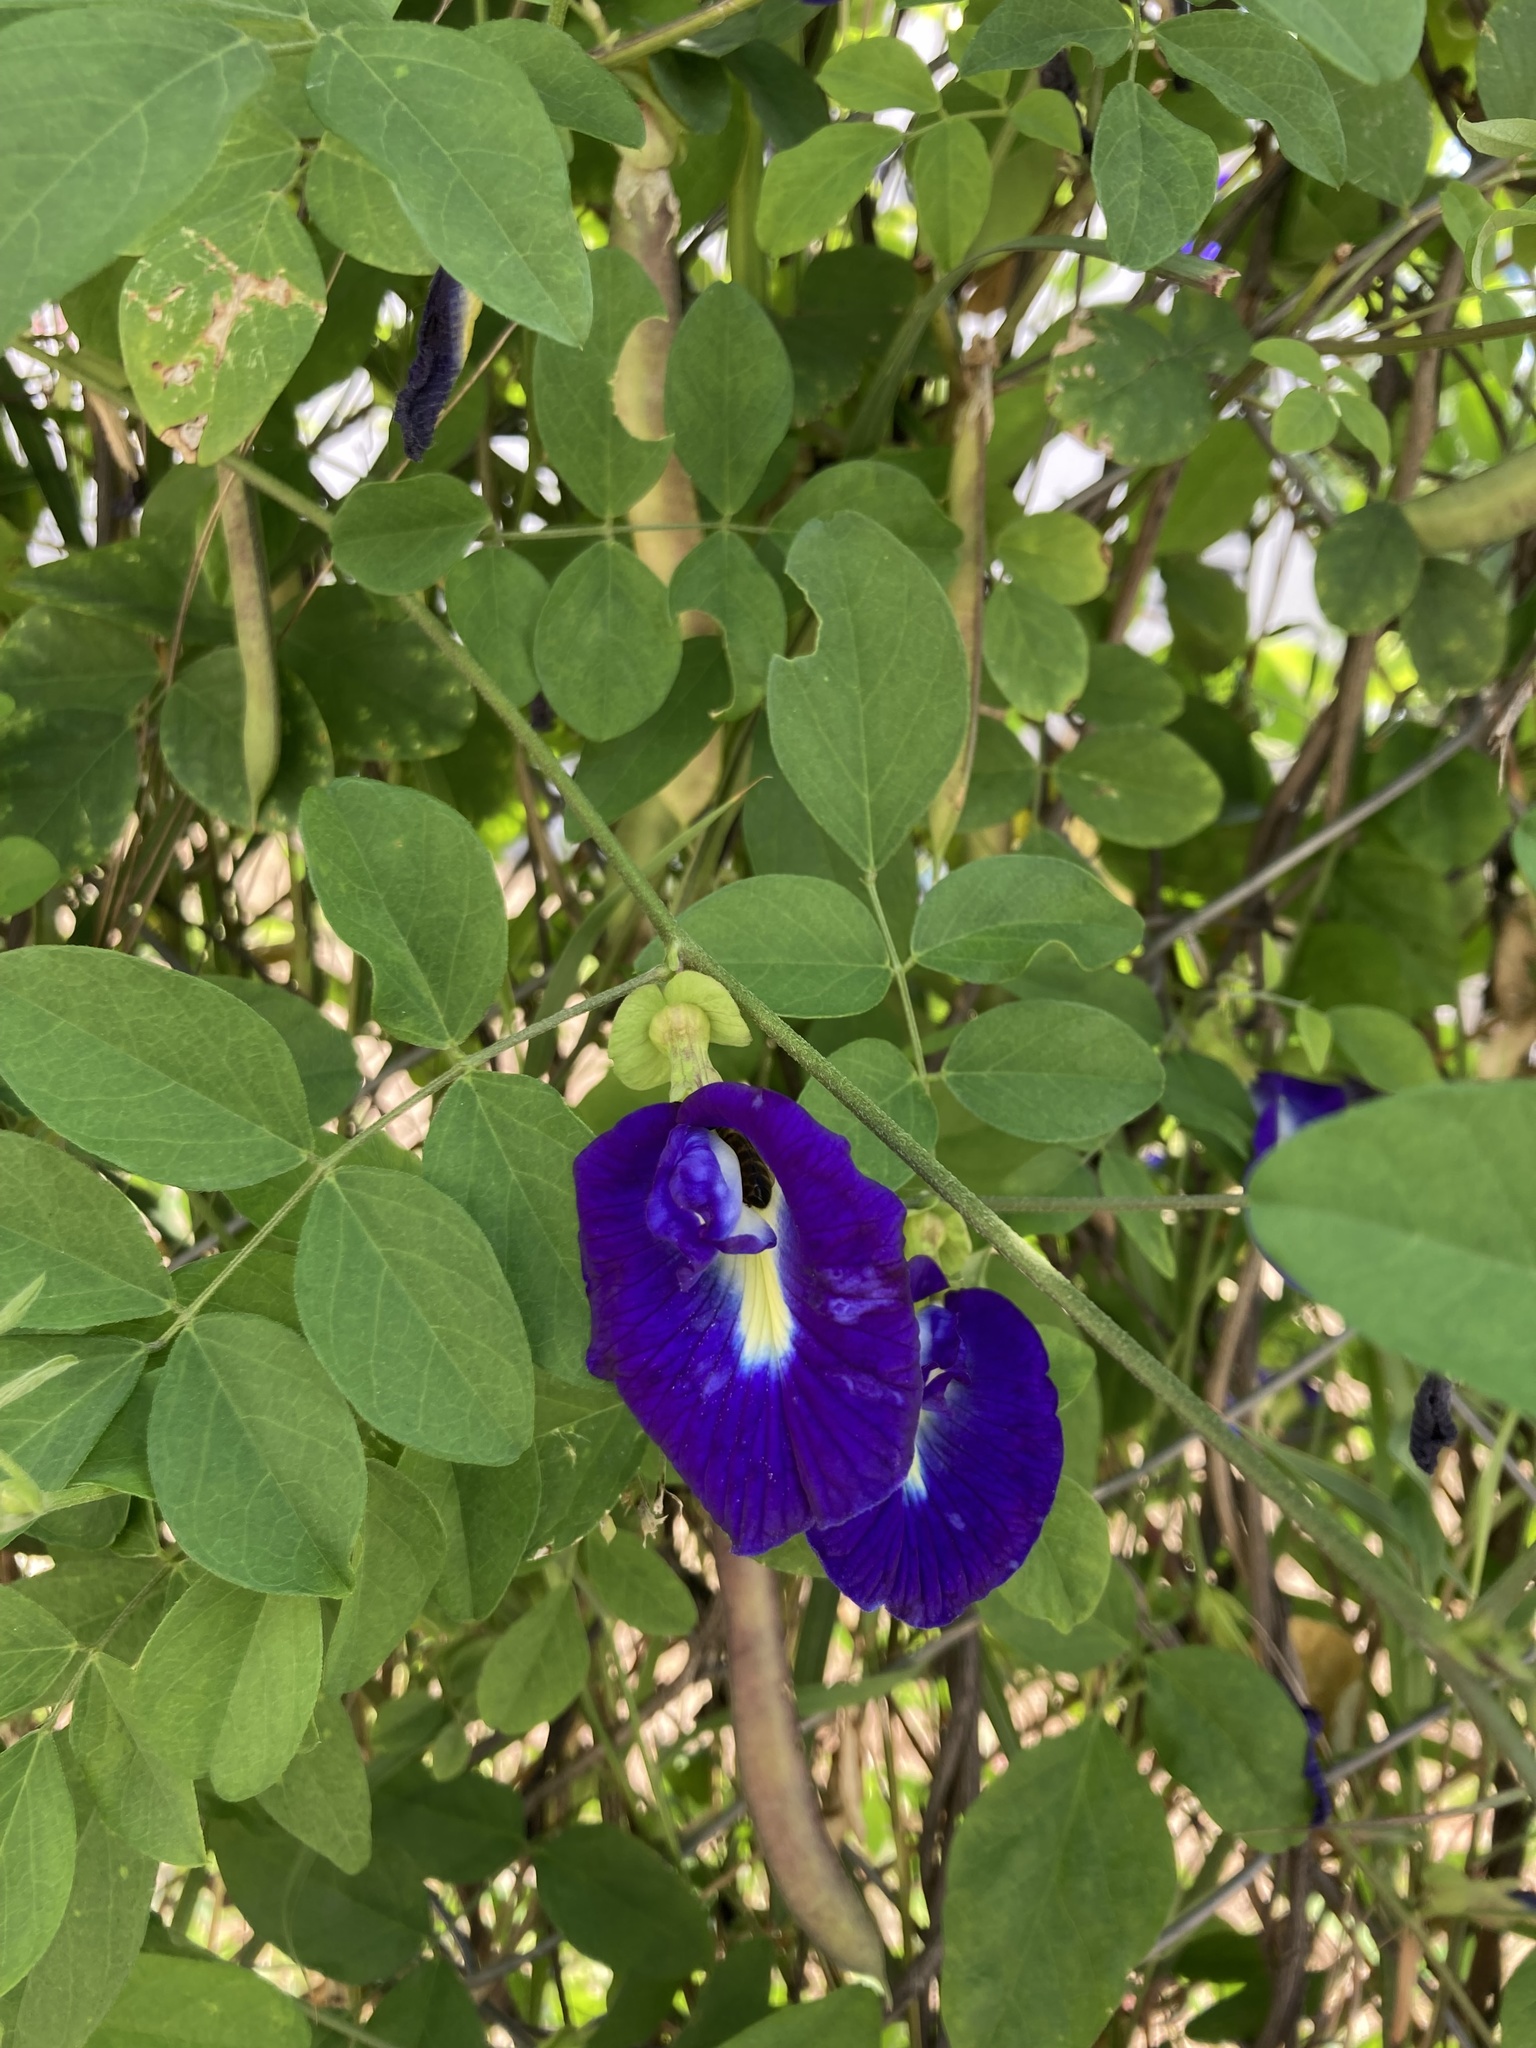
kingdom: Plantae
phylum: Tracheophyta
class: Magnoliopsida
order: Fabales
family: Fabaceae
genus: Clitoria
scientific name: Clitoria ternatea
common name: Asian pigeonwings
